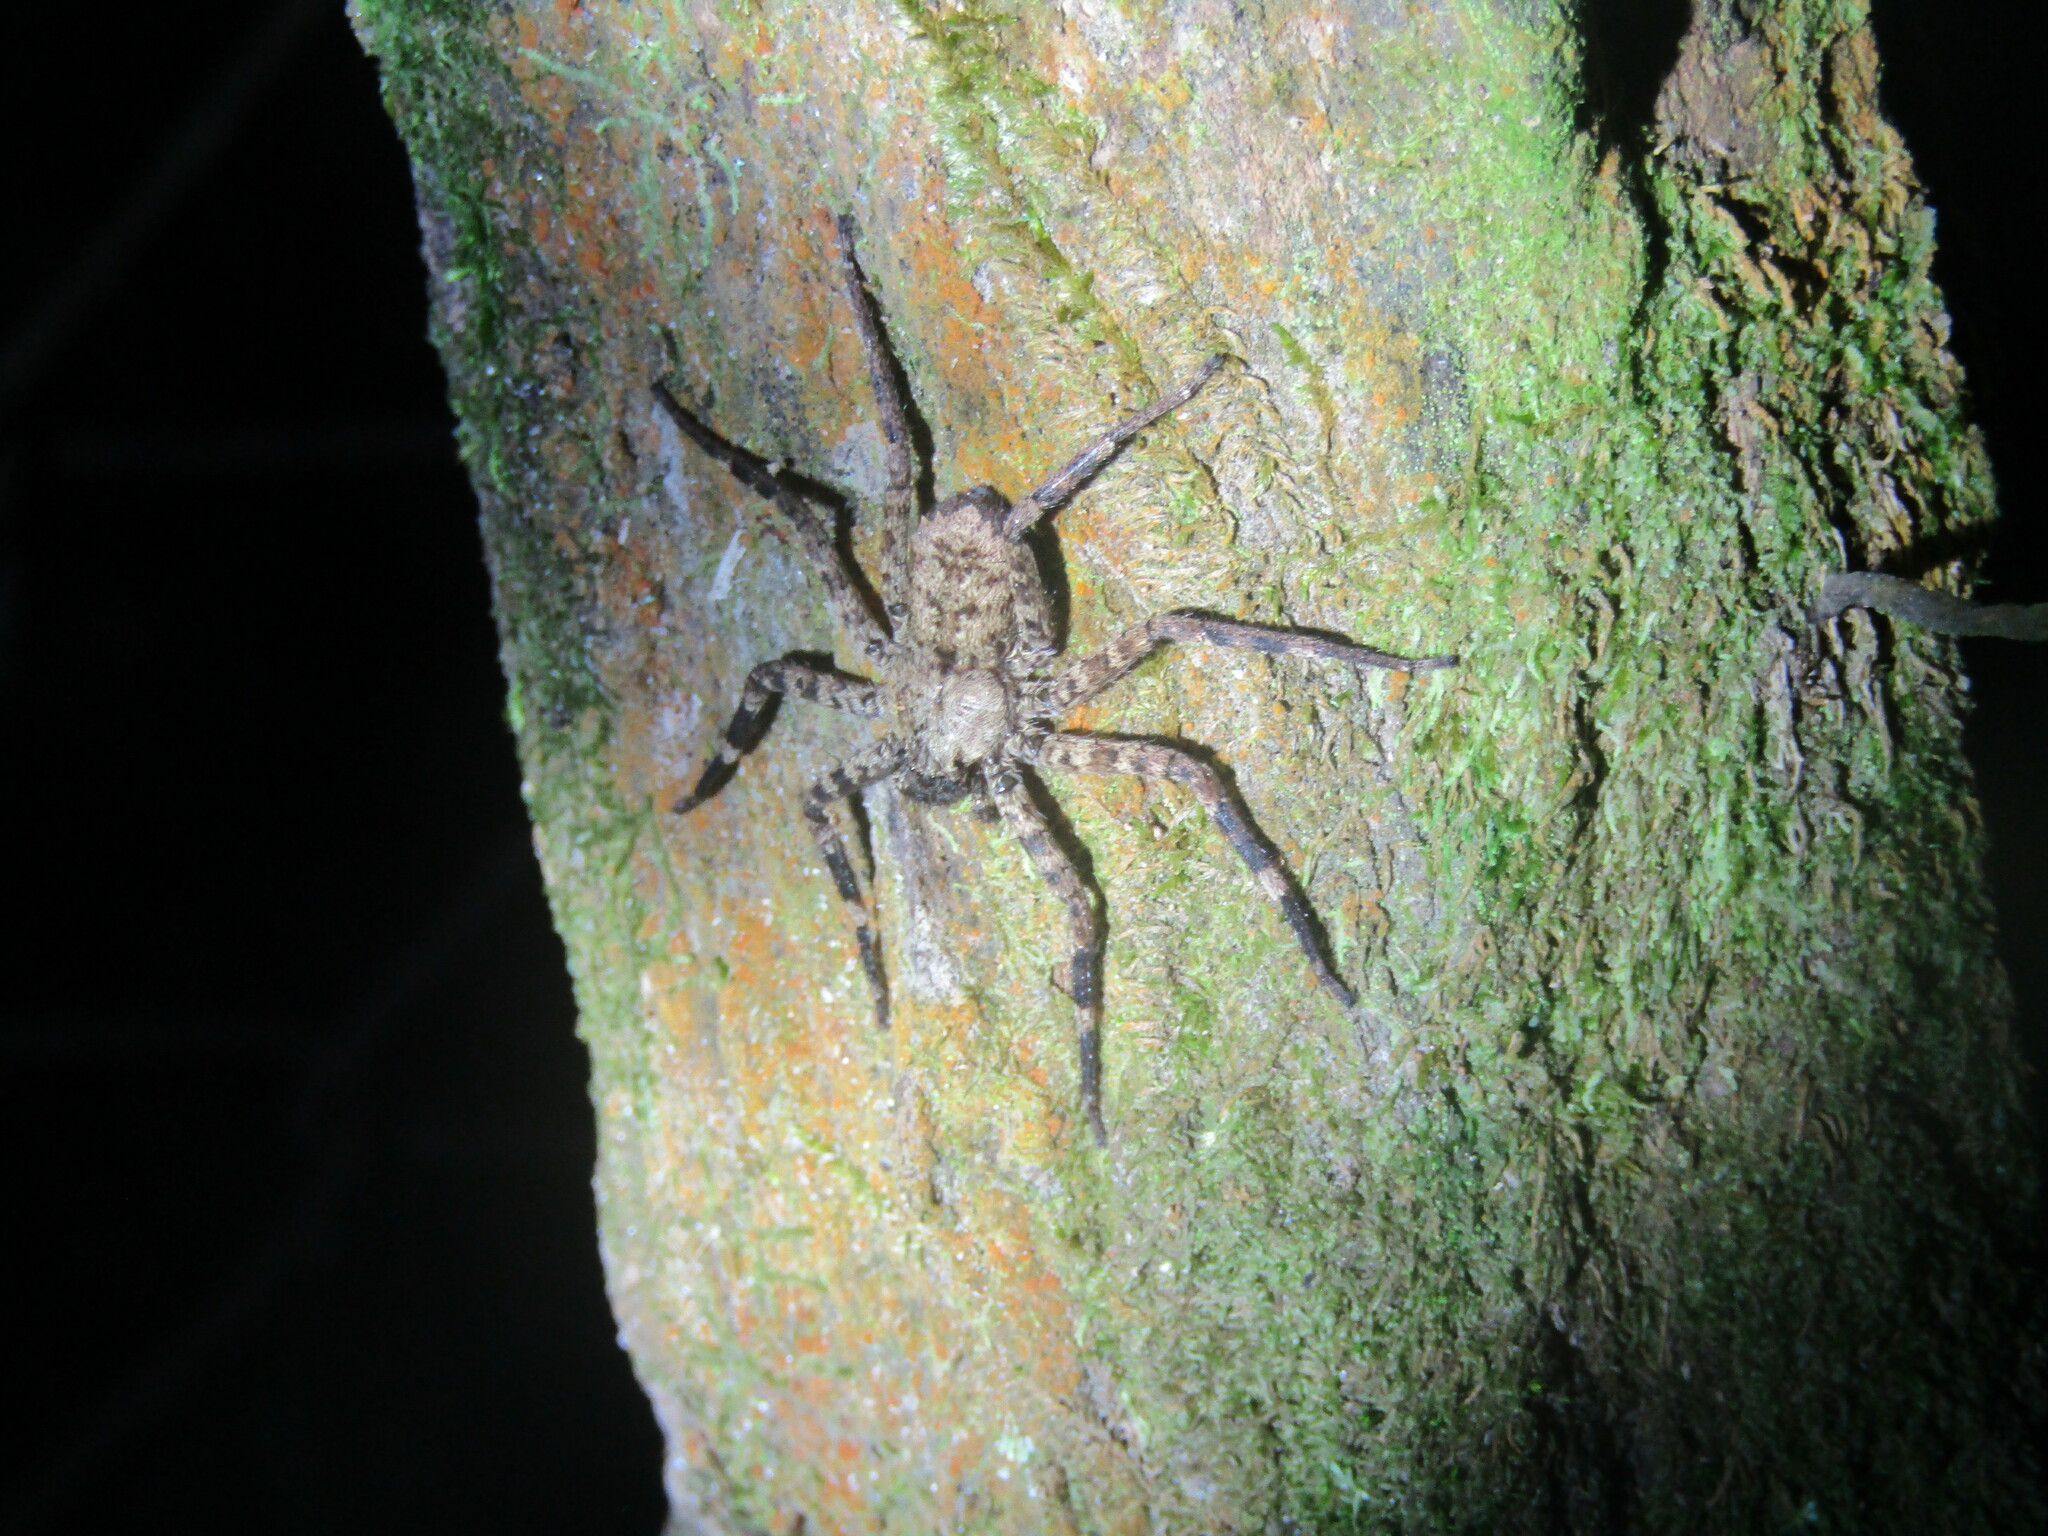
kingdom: Animalia
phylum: Arthropoda
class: Arachnida
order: Araneae
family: Selenopidae
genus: Selenops
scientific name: Selenops mexicanus
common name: Wall crab spiders
